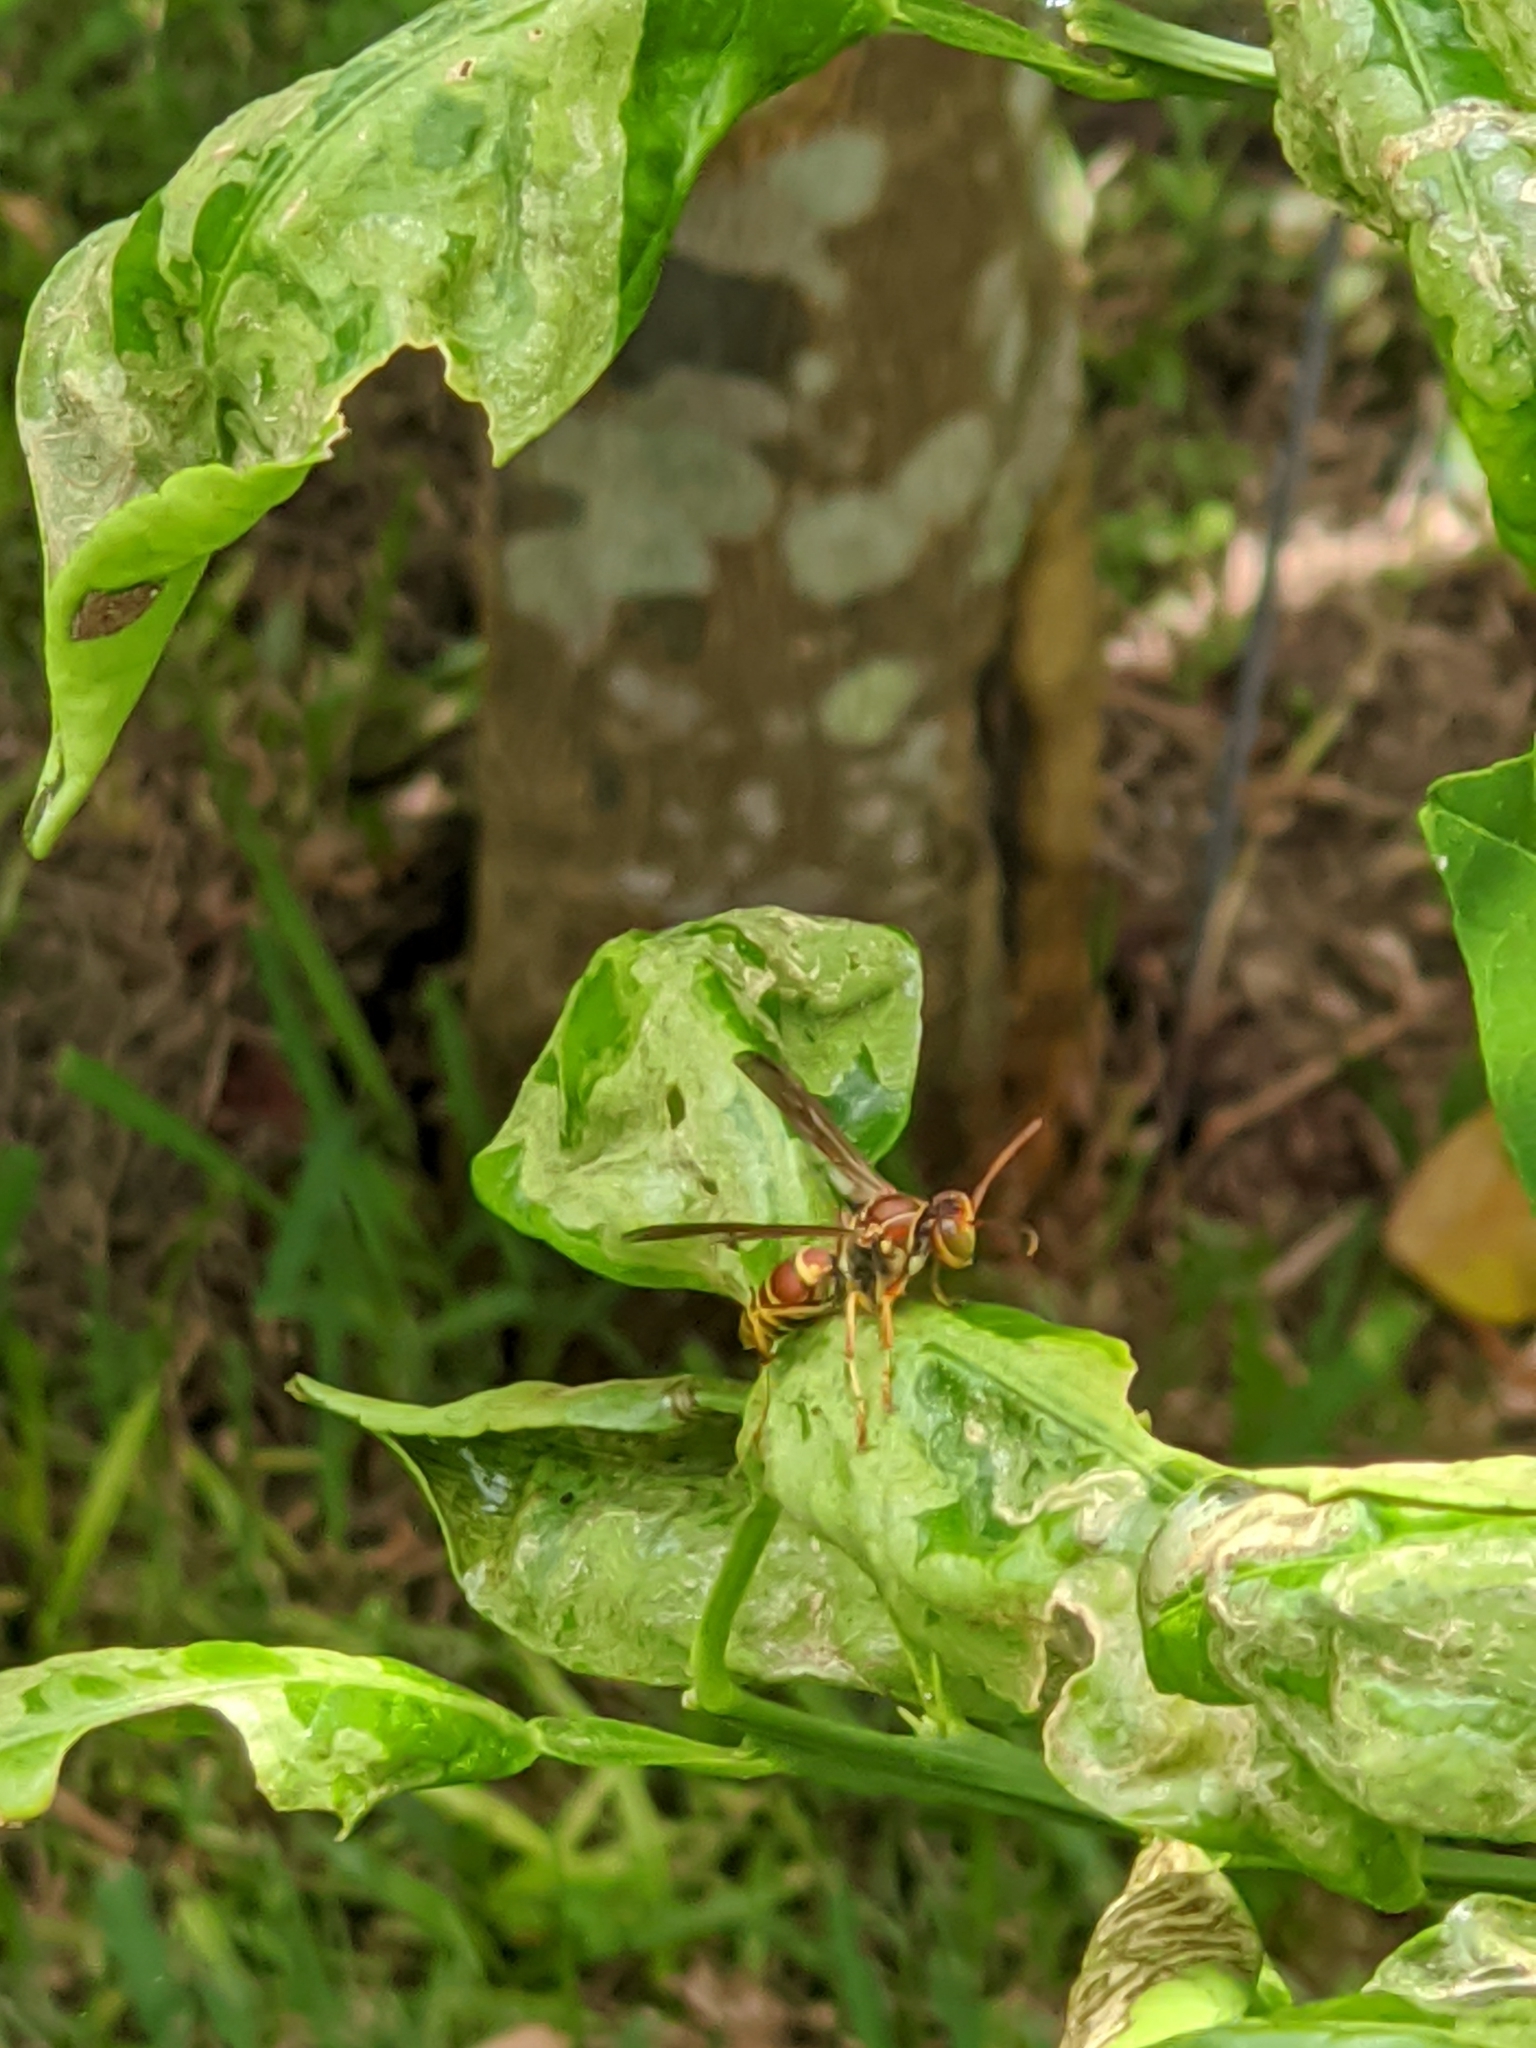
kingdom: Animalia
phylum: Arthropoda
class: Insecta
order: Hymenoptera
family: Eumenidae
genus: Polistes
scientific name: Polistes dorsalis
